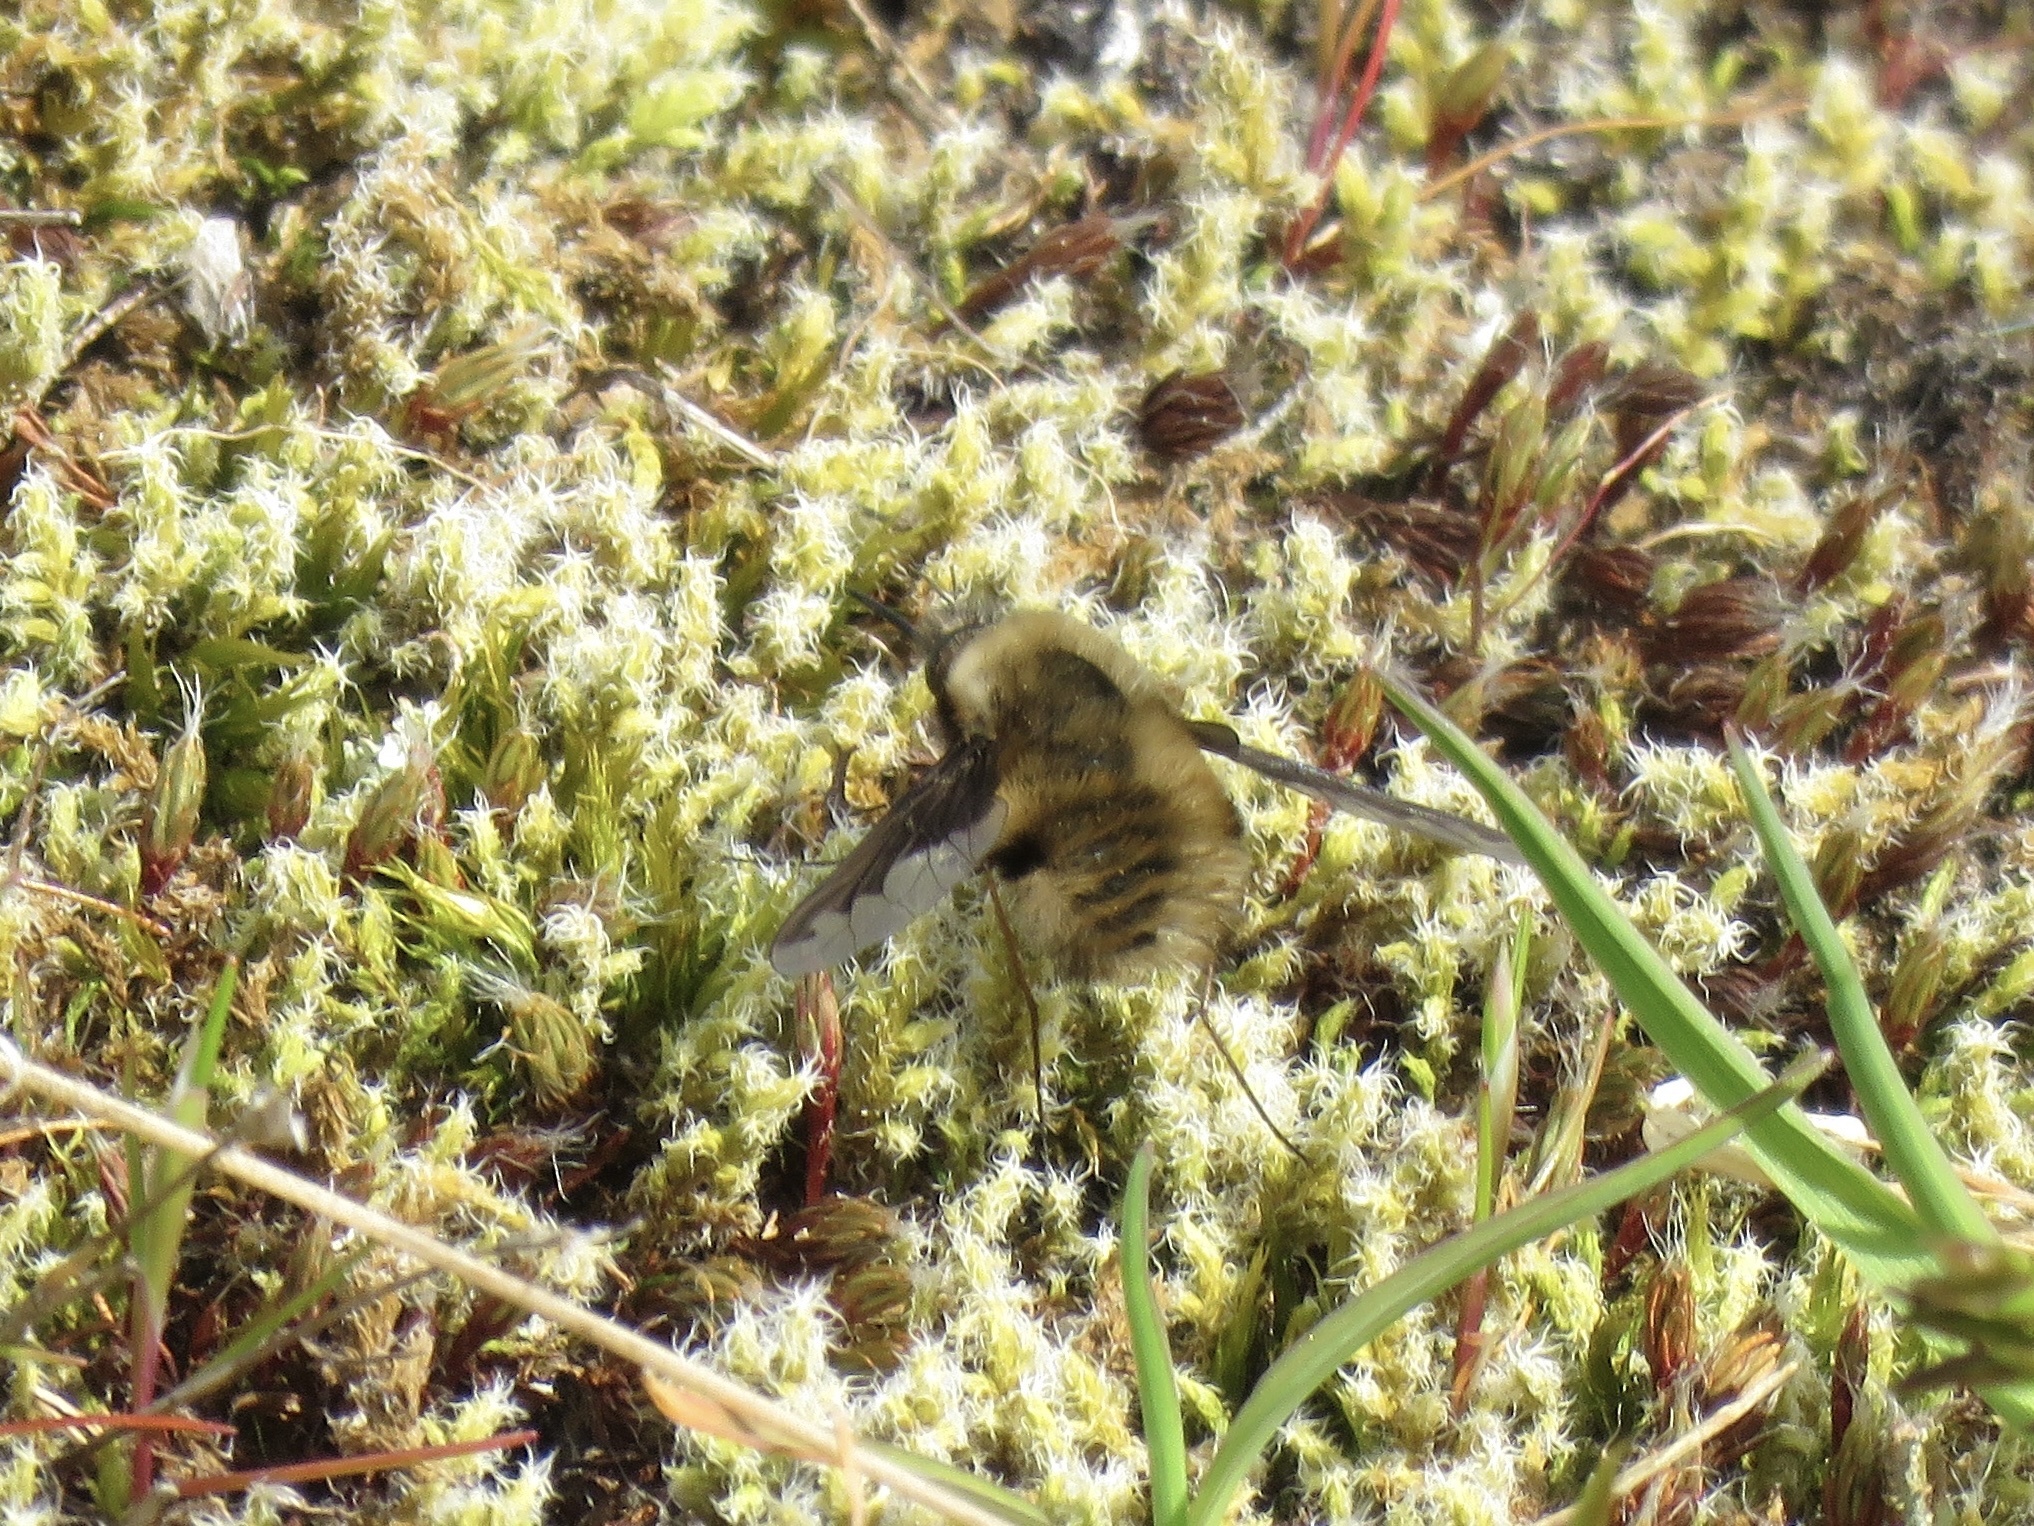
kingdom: Animalia
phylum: Arthropoda
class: Insecta
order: Diptera
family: Bombyliidae
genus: Bombylius
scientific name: Bombylius major
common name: Bee fly
